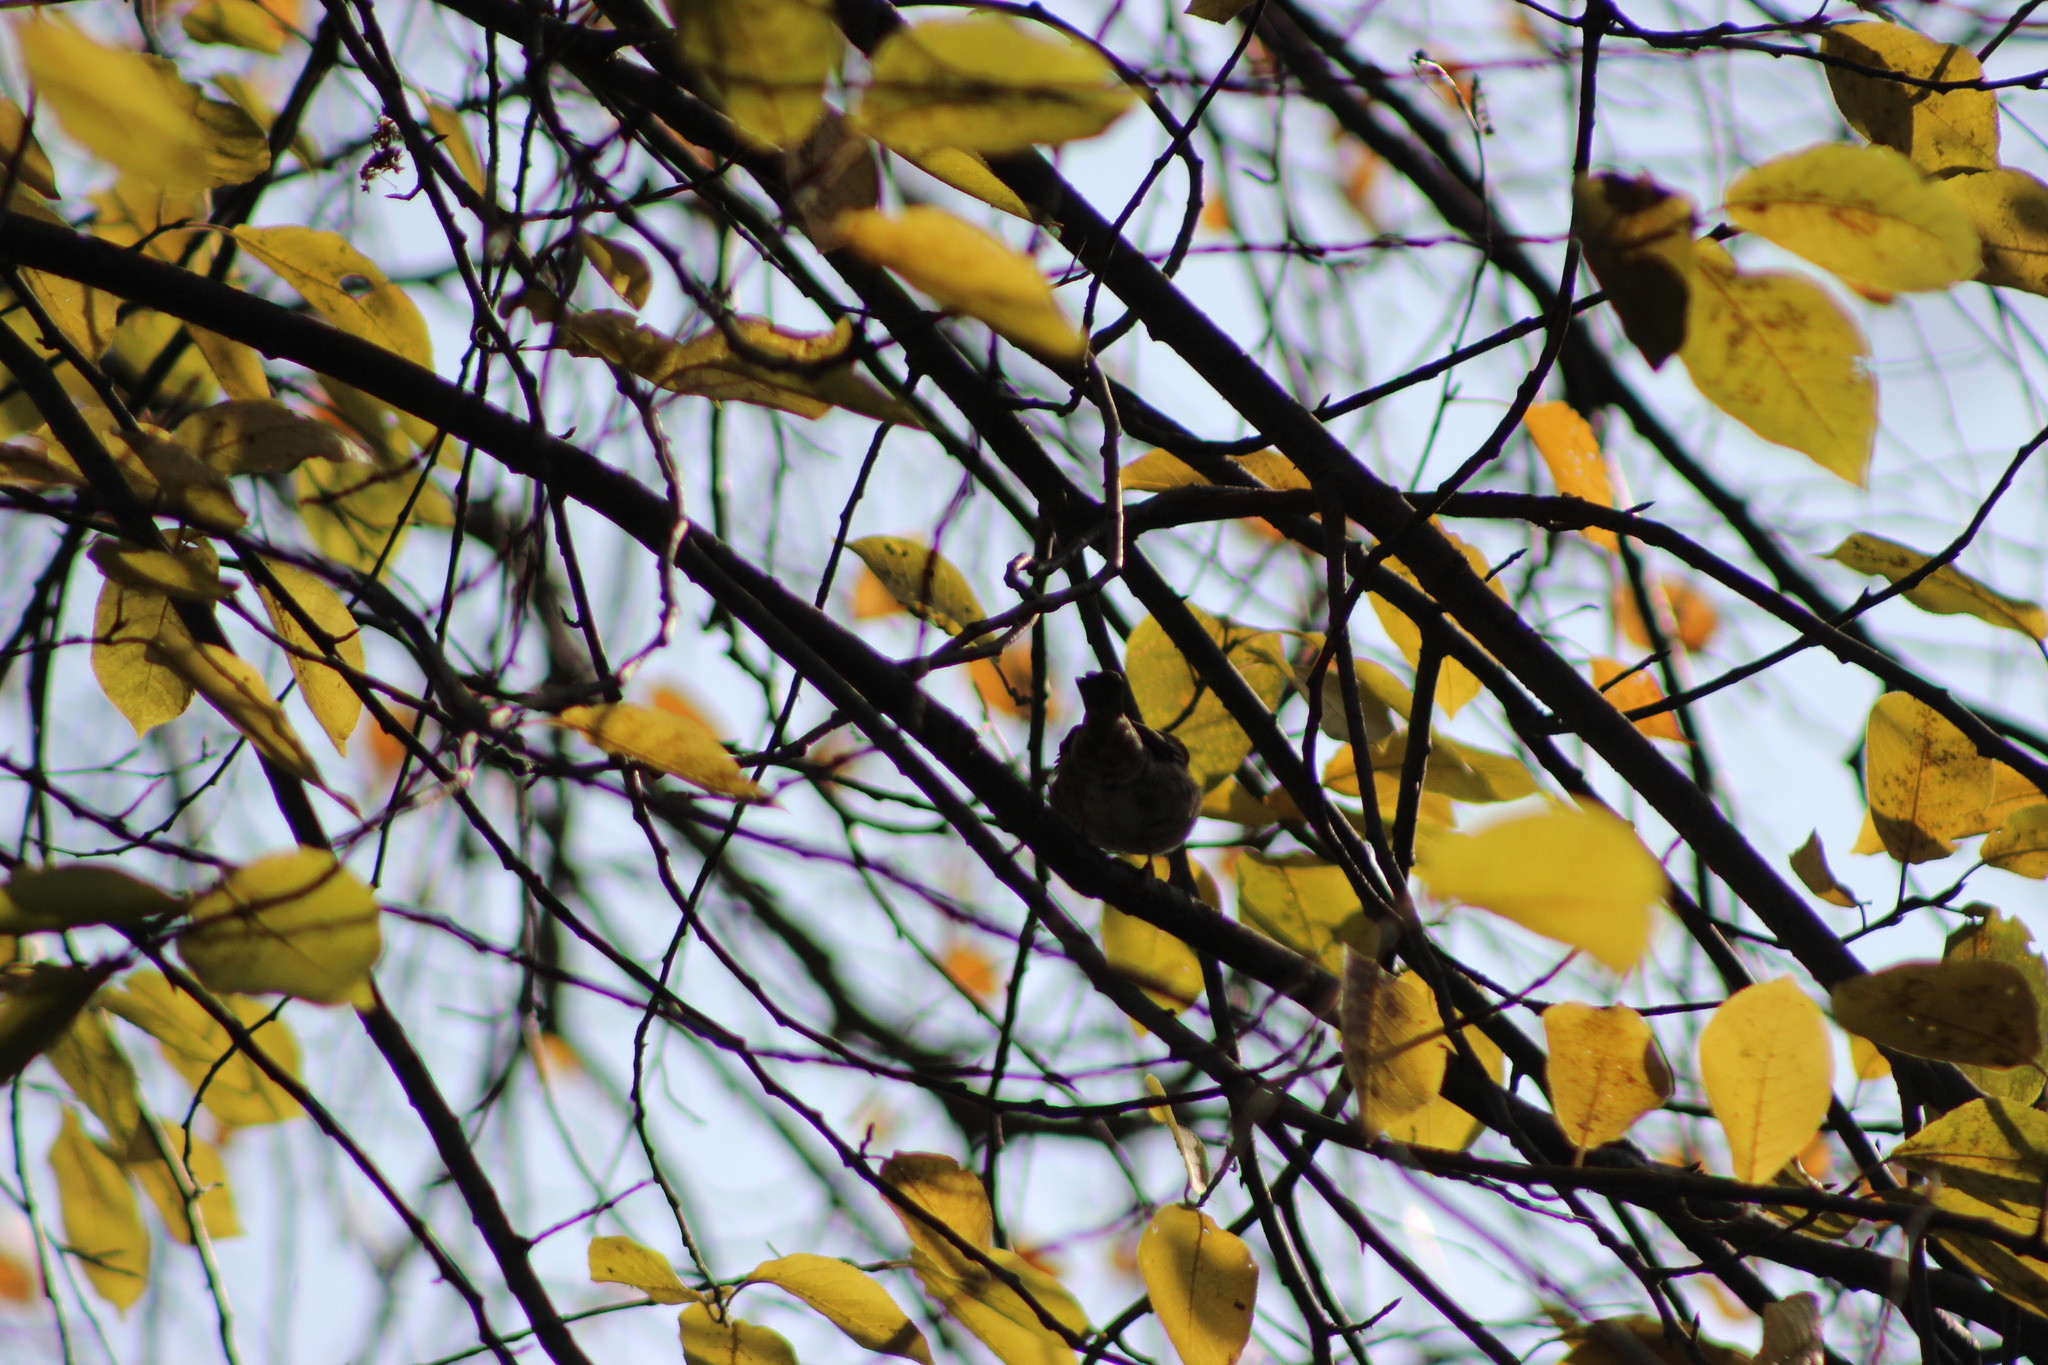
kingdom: Animalia
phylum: Chordata
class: Aves
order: Passeriformes
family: Passeridae
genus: Passer
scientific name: Passer montanus
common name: Eurasian tree sparrow
